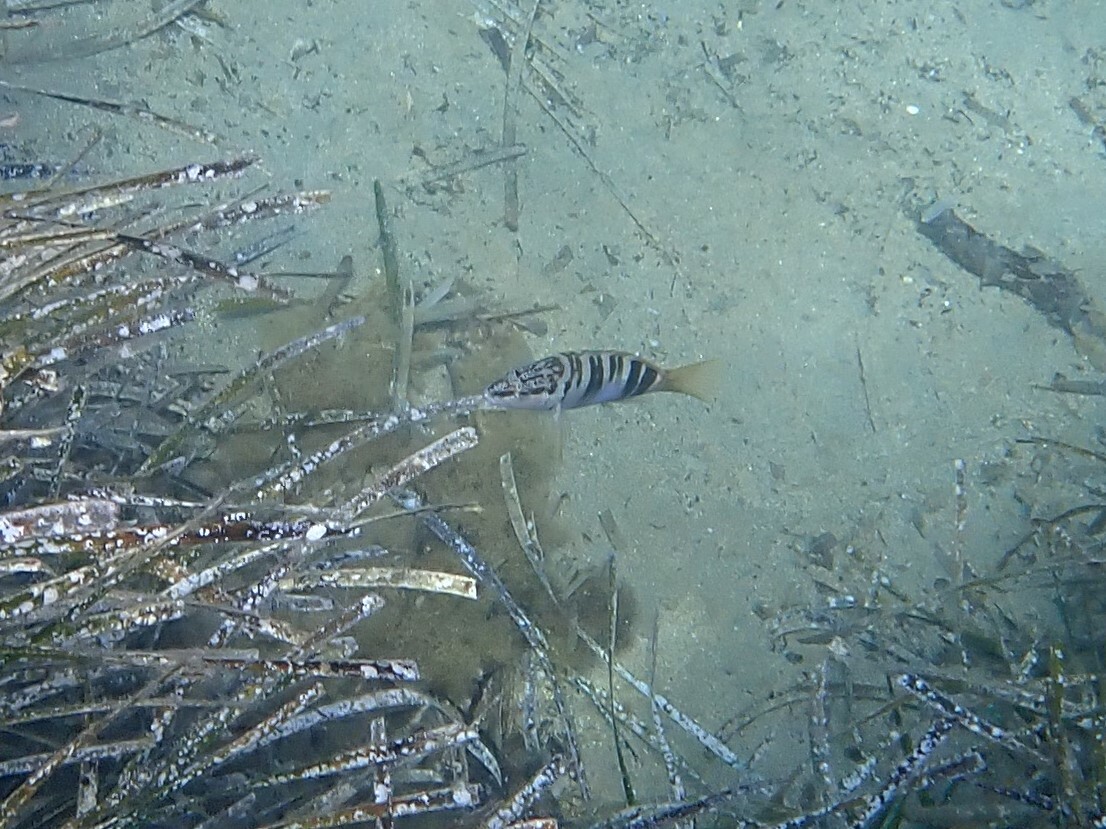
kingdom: Animalia
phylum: Chordata
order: Perciformes
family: Serranidae
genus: Serranus
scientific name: Serranus scriba
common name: Painted comber
